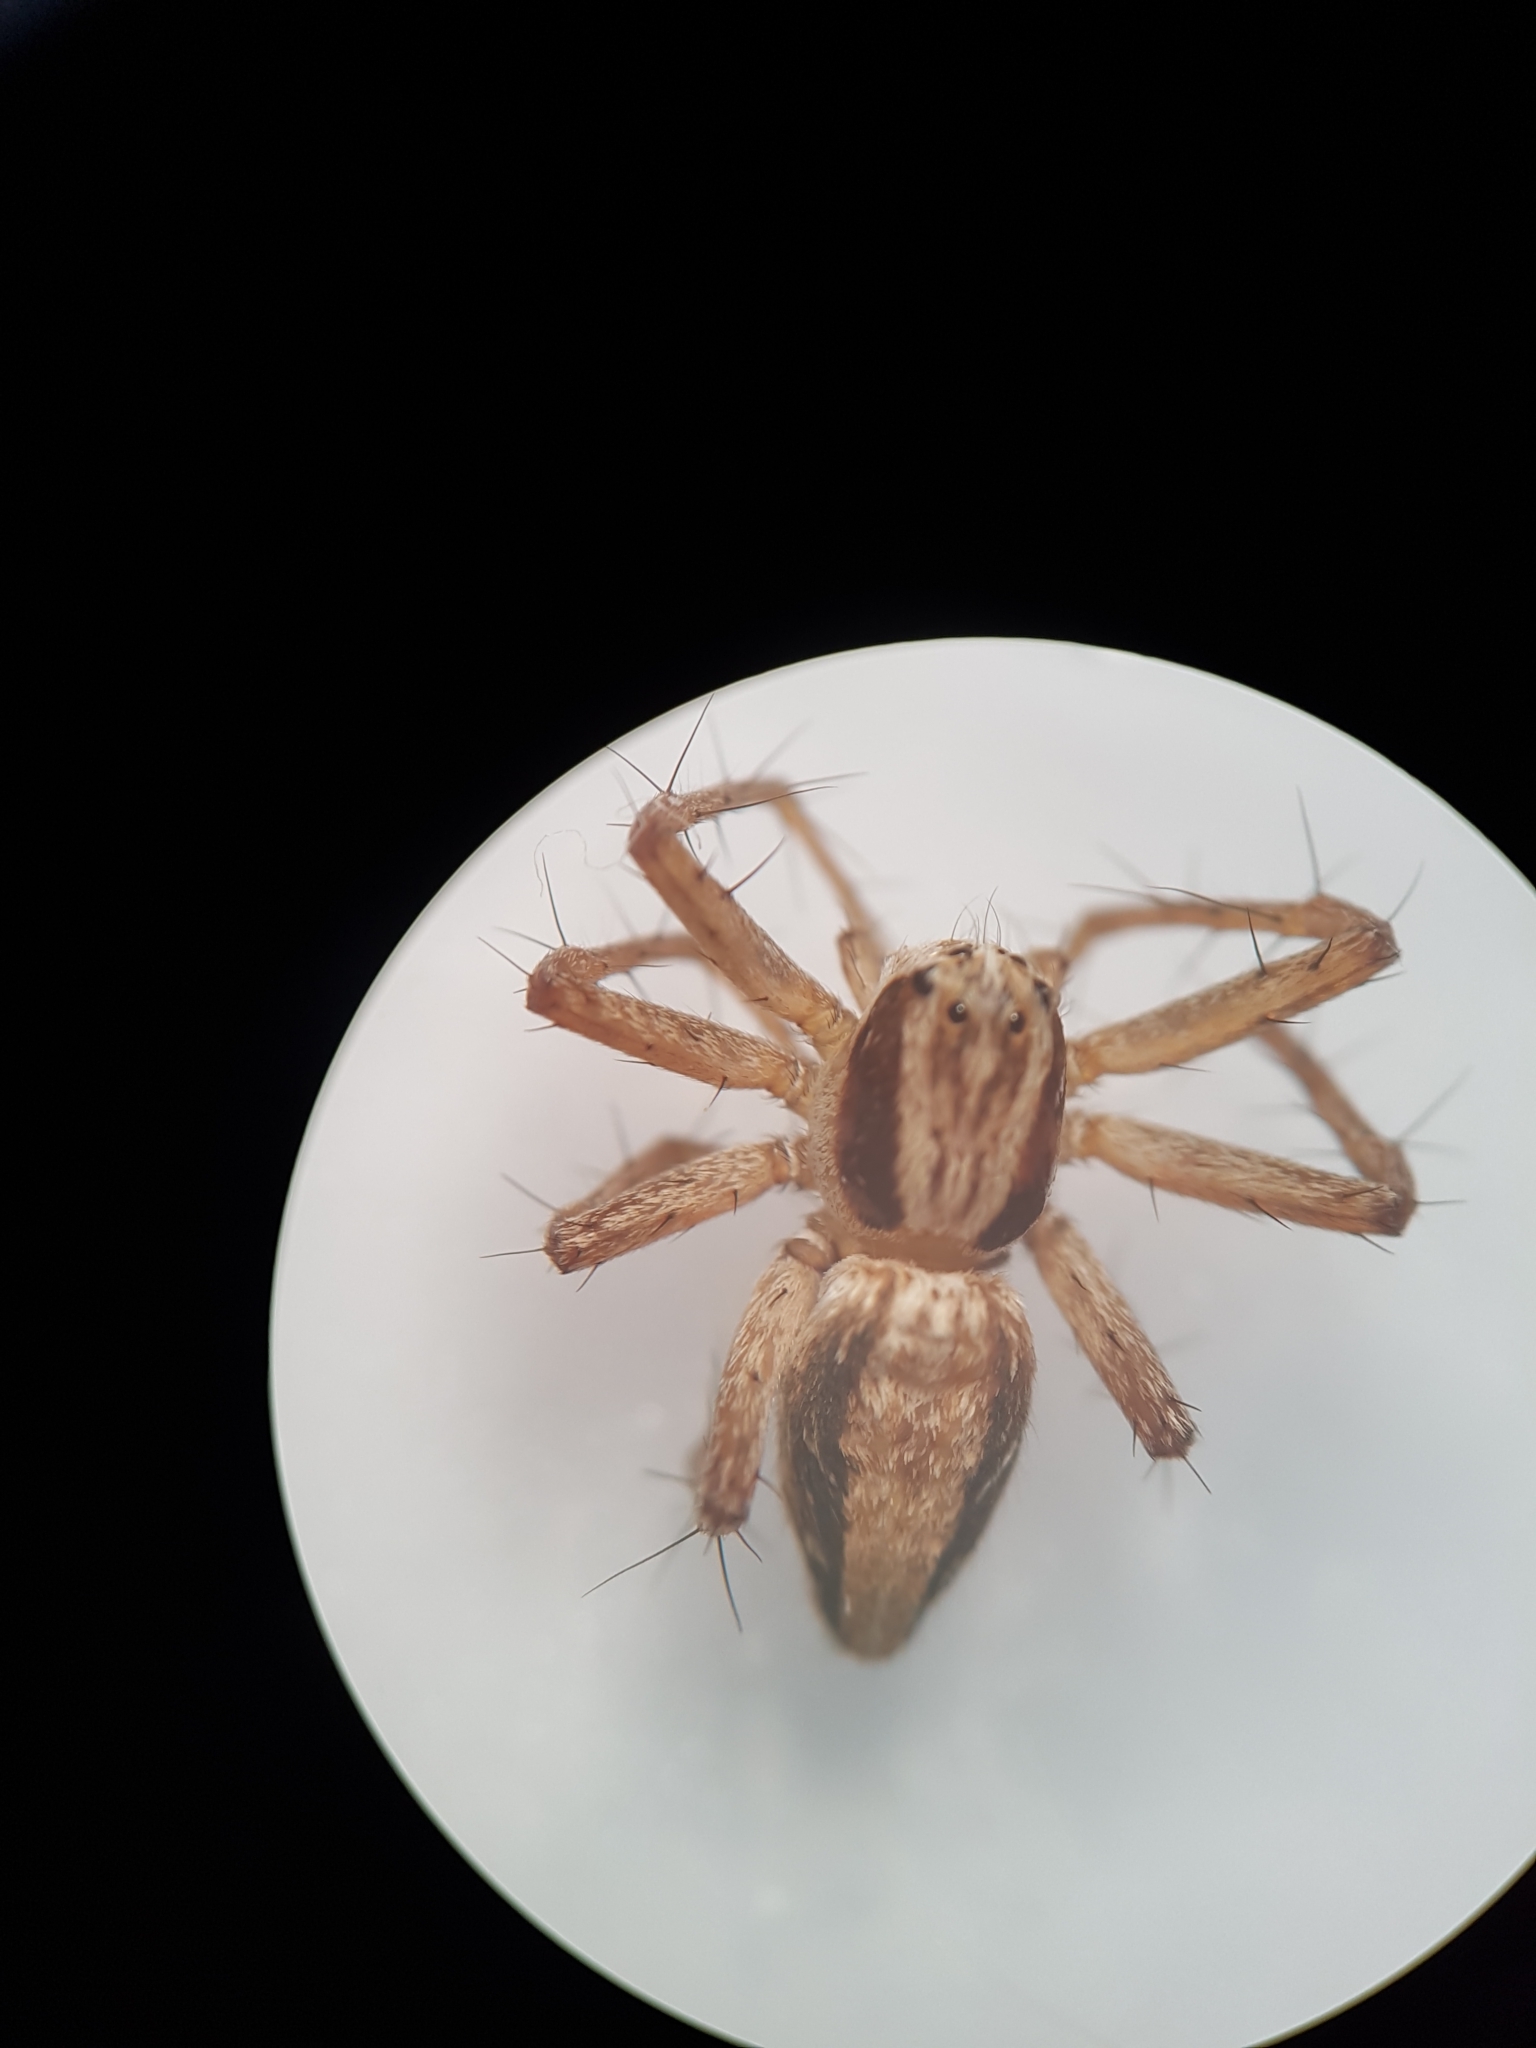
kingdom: Animalia
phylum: Arthropoda
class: Arachnida
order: Araneae
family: Oxyopidae
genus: Oxyopes
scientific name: Oxyopes gracilipes
